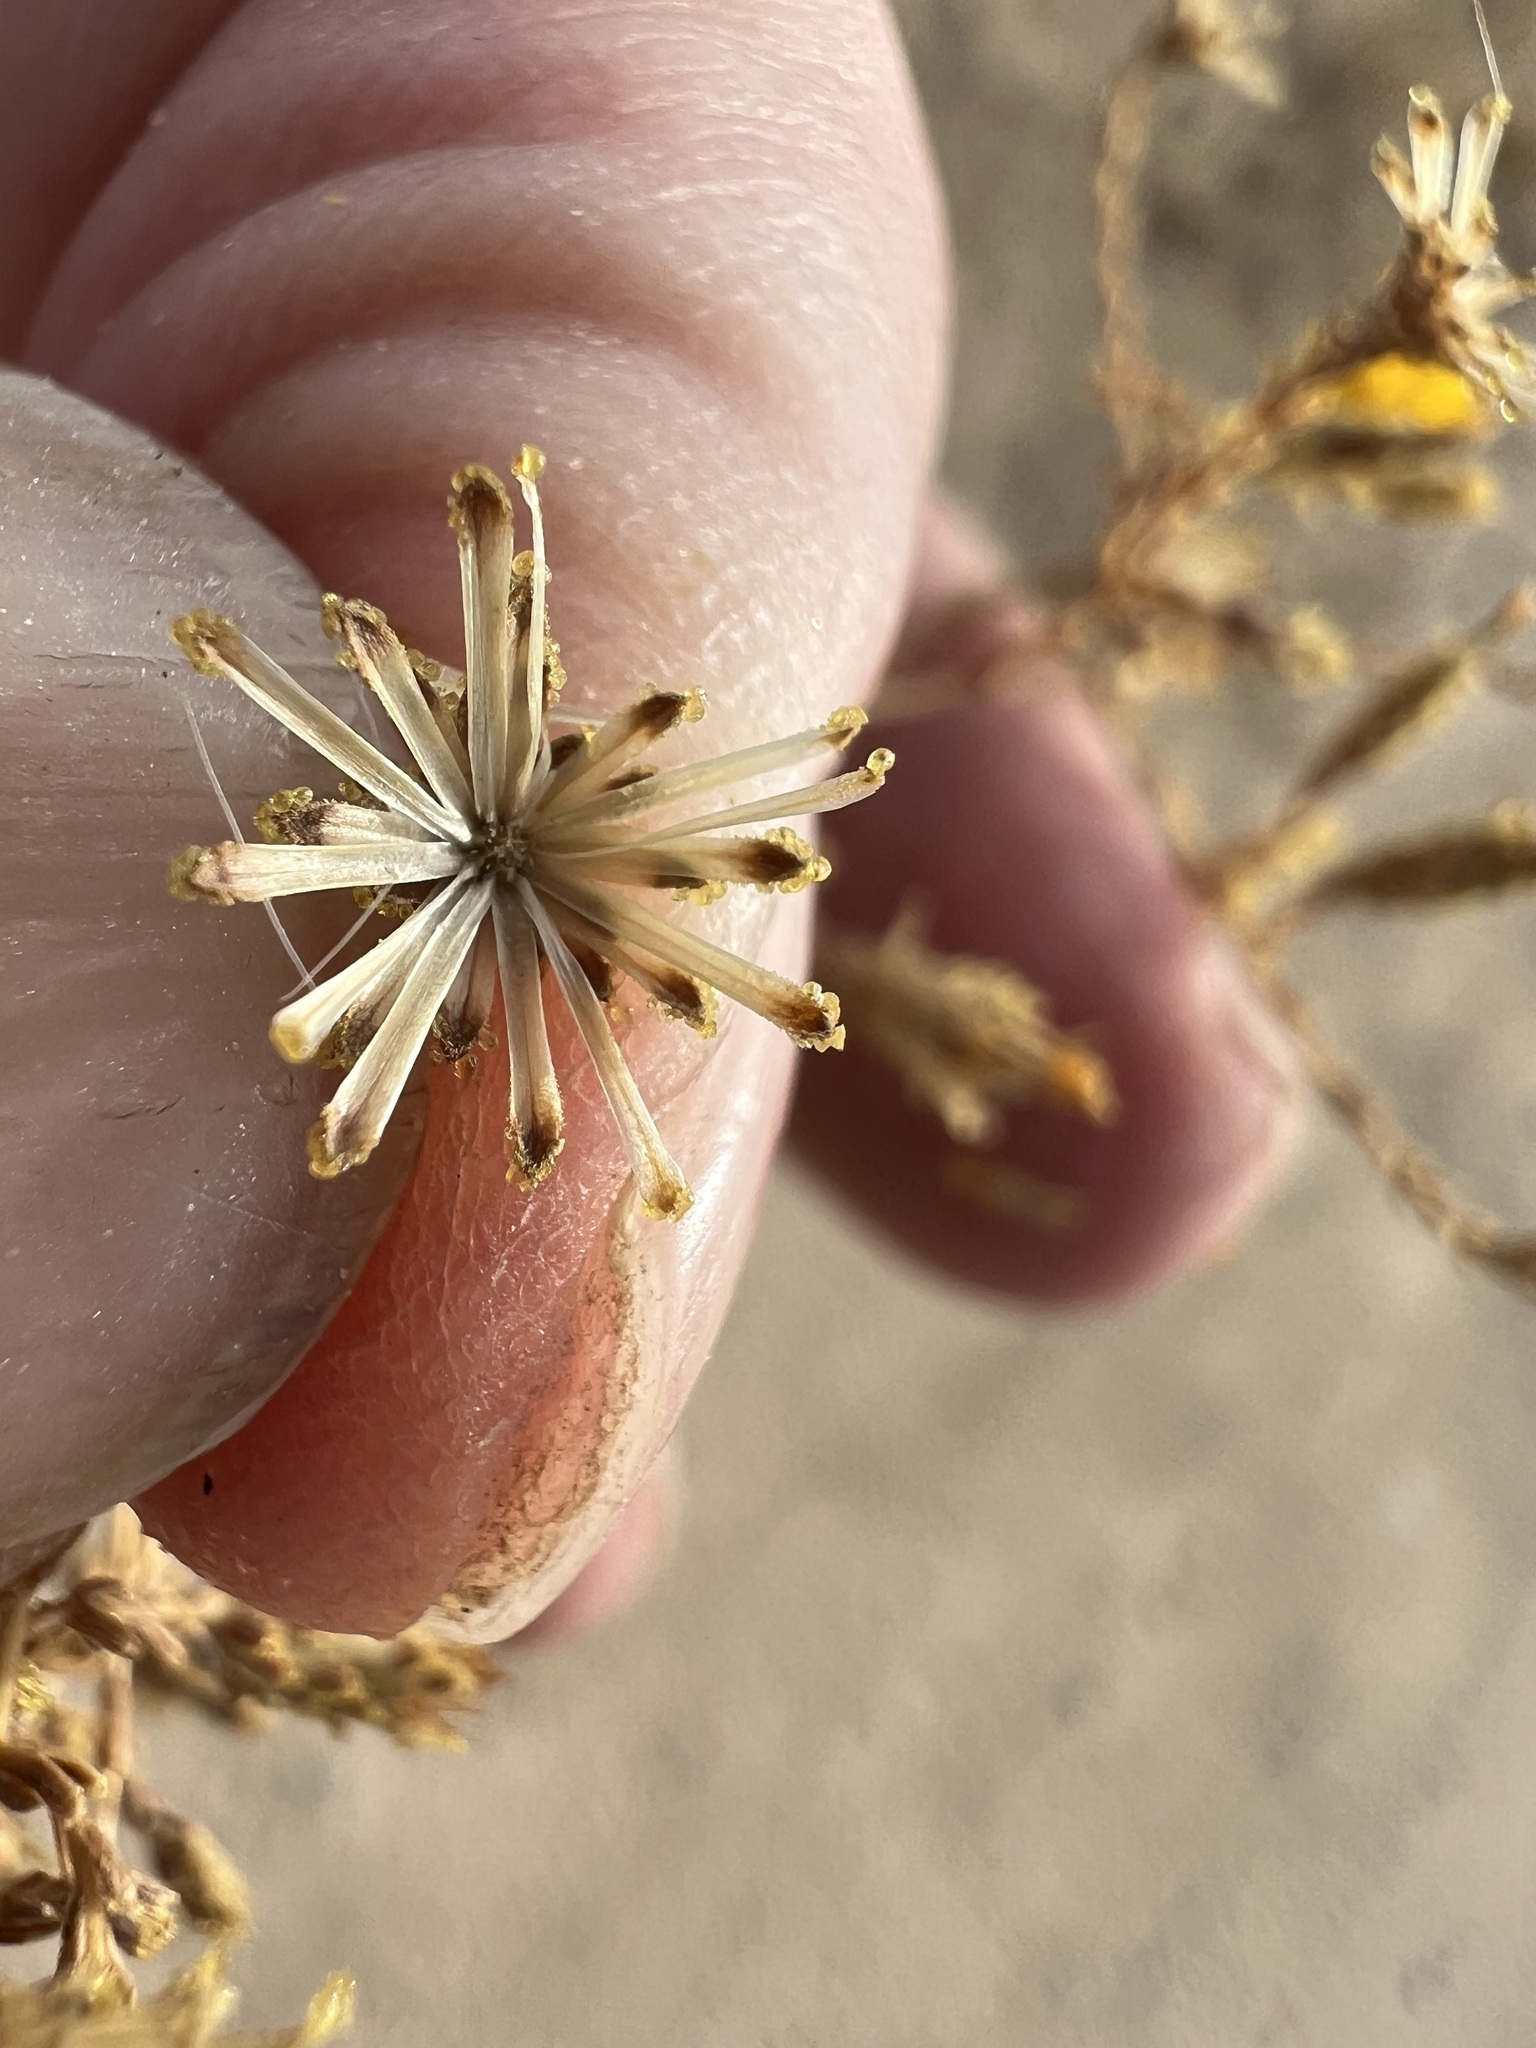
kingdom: Plantae
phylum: Tracheophyta
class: Magnoliopsida
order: Asterales
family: Asteraceae
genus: Lessingia
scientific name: Lessingia glandulifera
